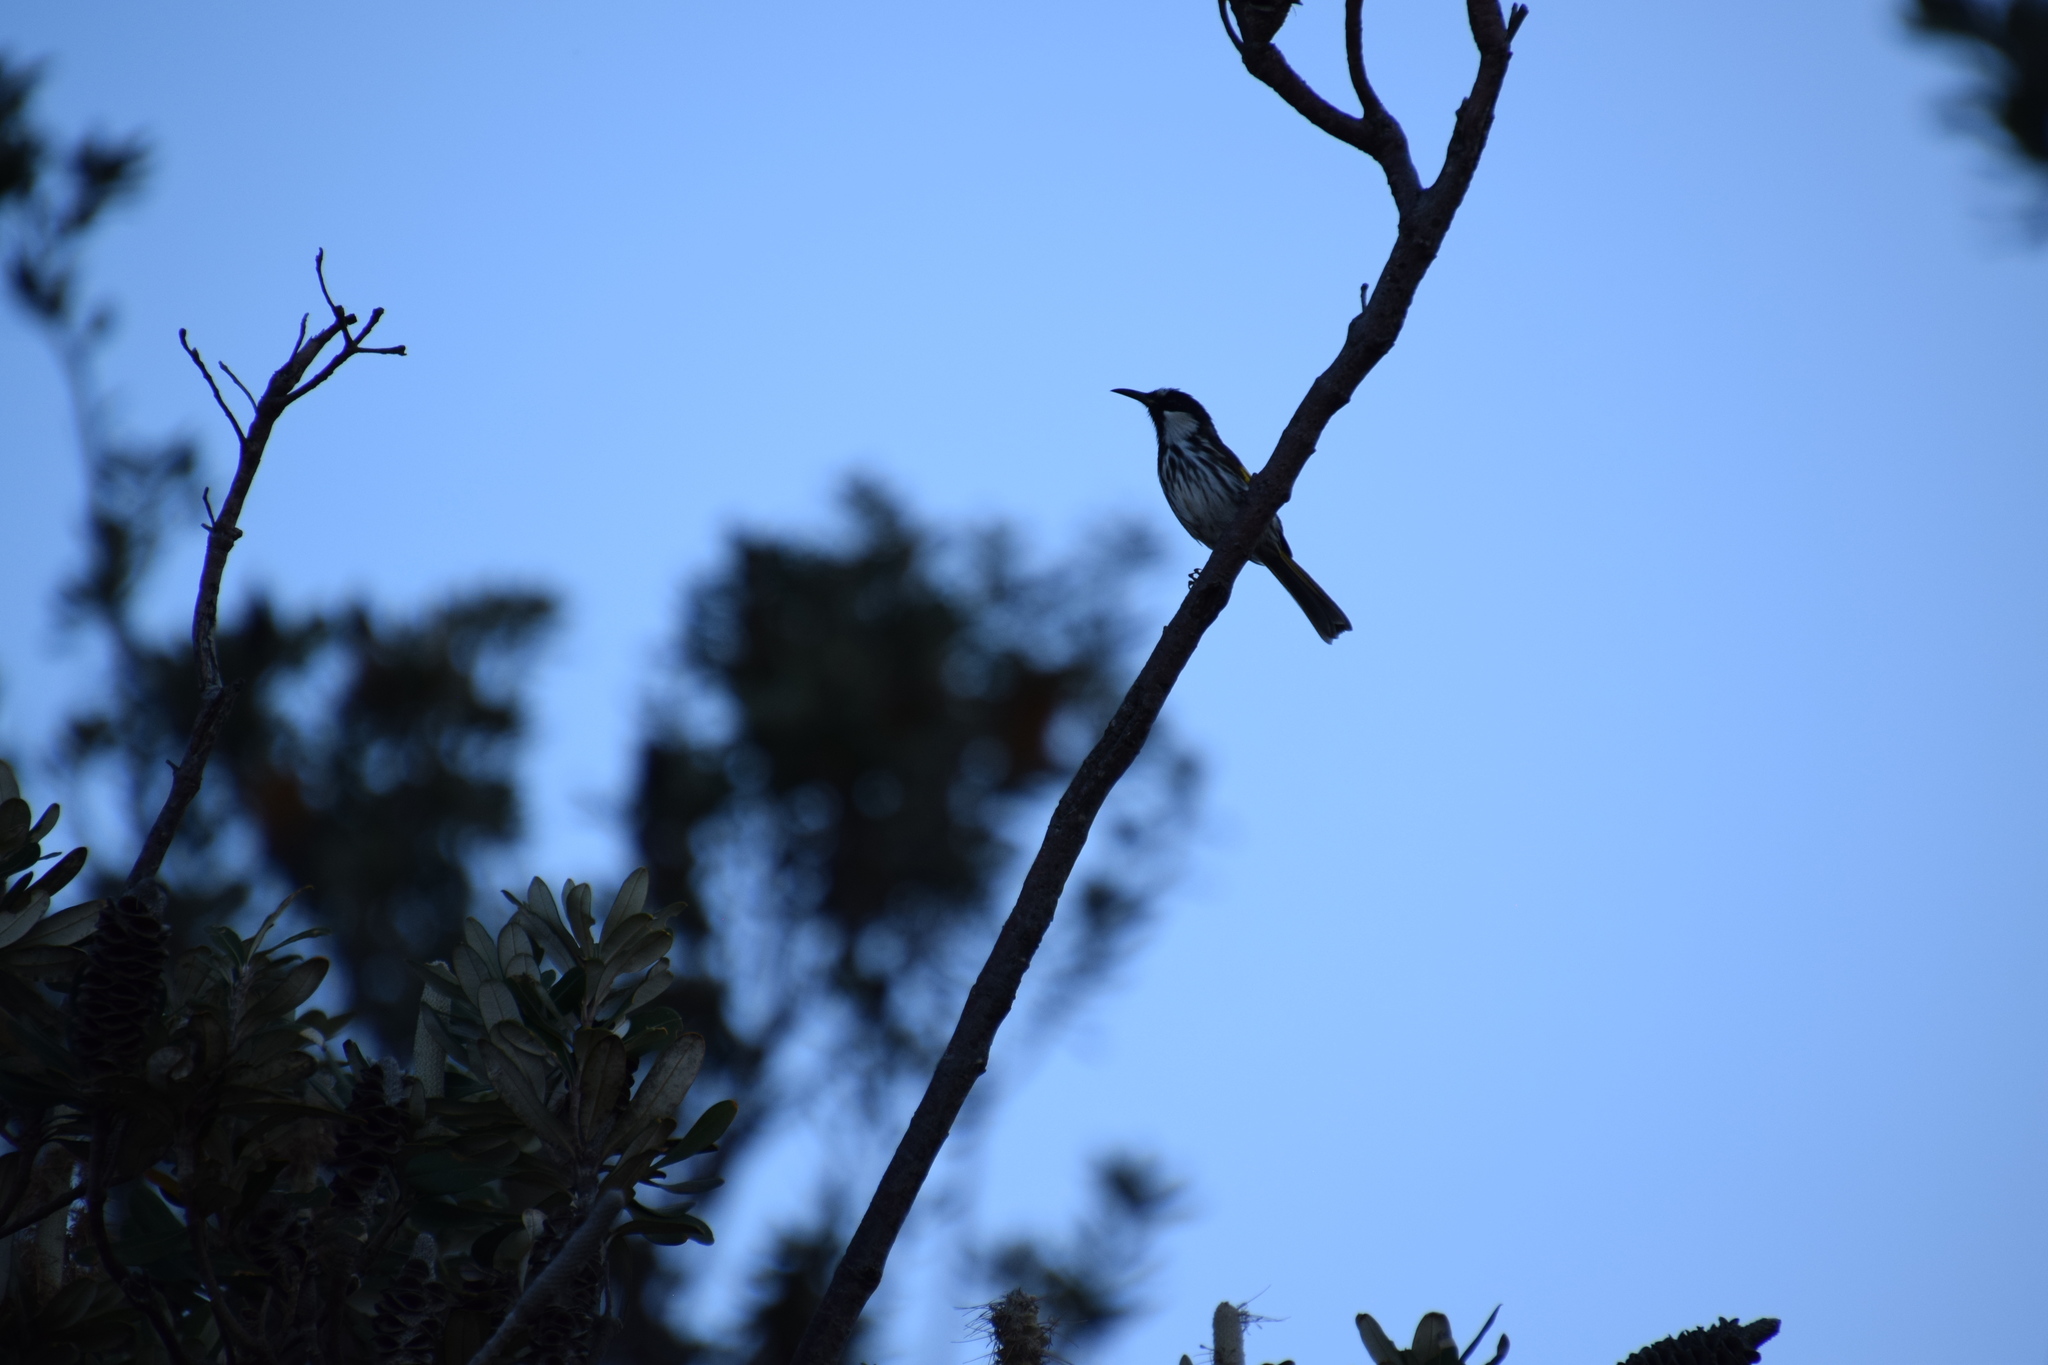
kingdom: Animalia
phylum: Chordata
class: Aves
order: Passeriformes
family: Meliphagidae
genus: Phylidonyris
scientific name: Phylidonyris niger
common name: White-cheeked honeyeater
